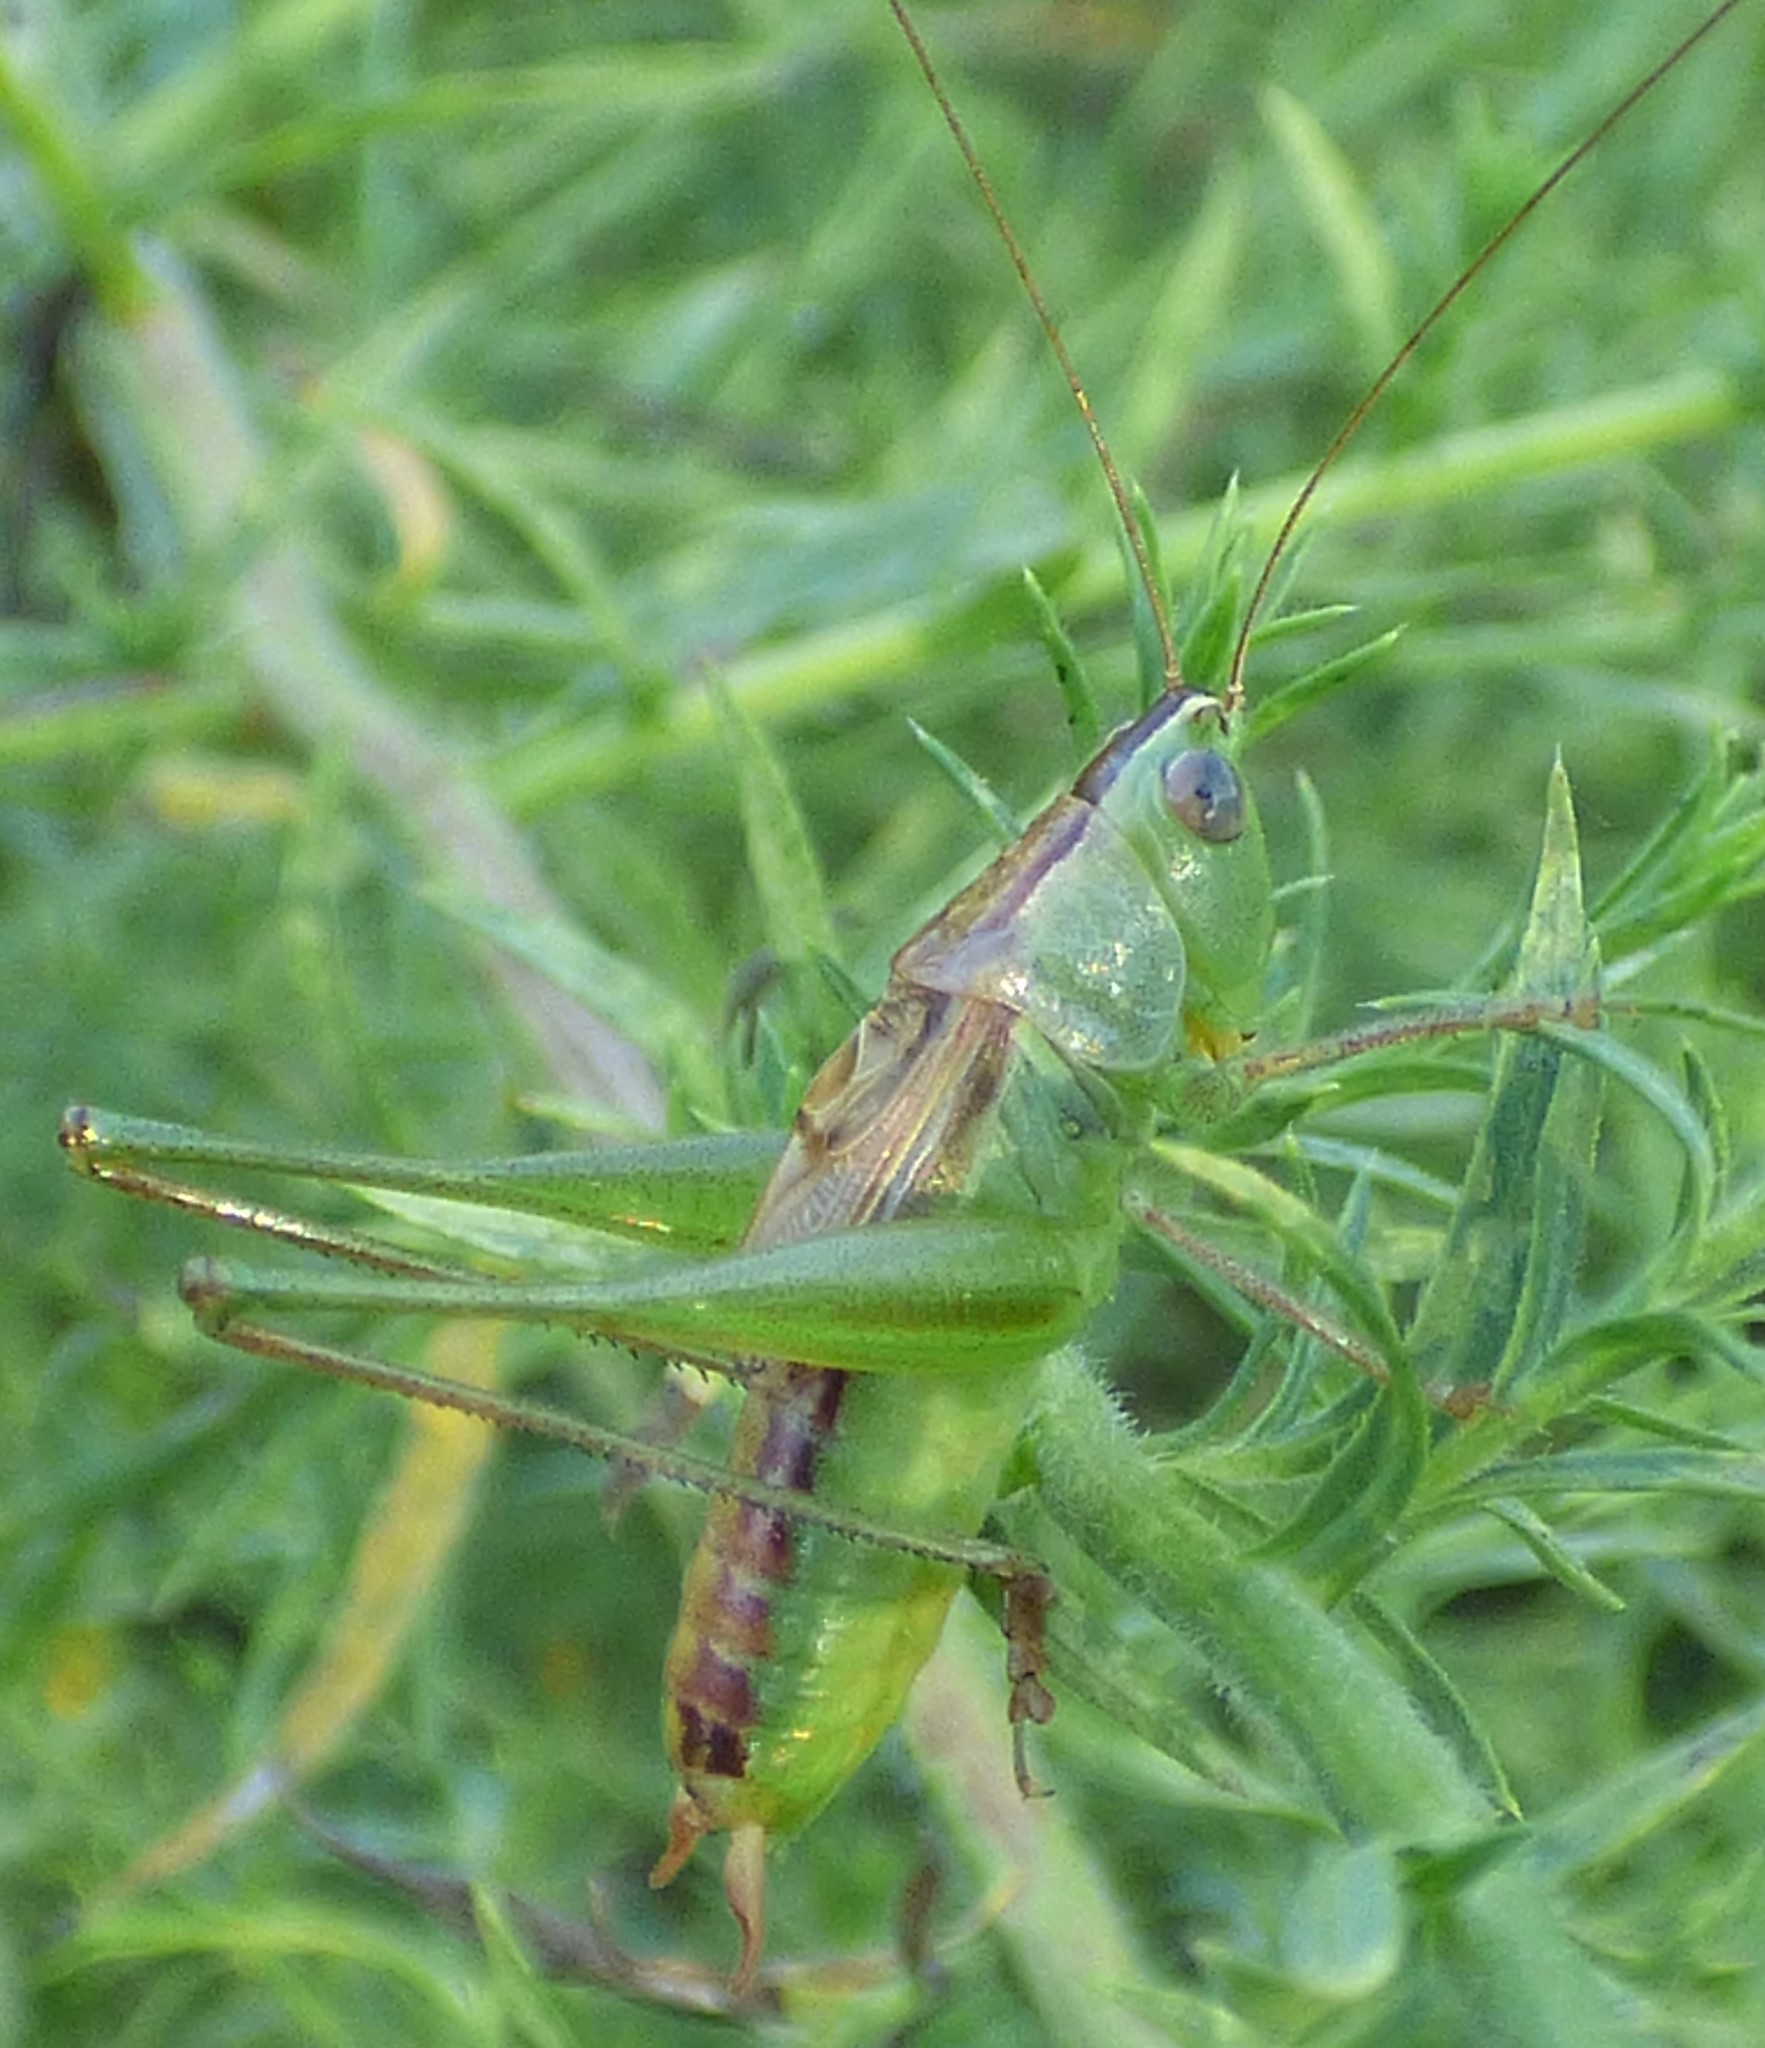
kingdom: Animalia
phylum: Arthropoda
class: Insecta
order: Orthoptera
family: Tettigoniidae
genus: Conocephalus
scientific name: Conocephalus strictus
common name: Straight-lanced katydid
